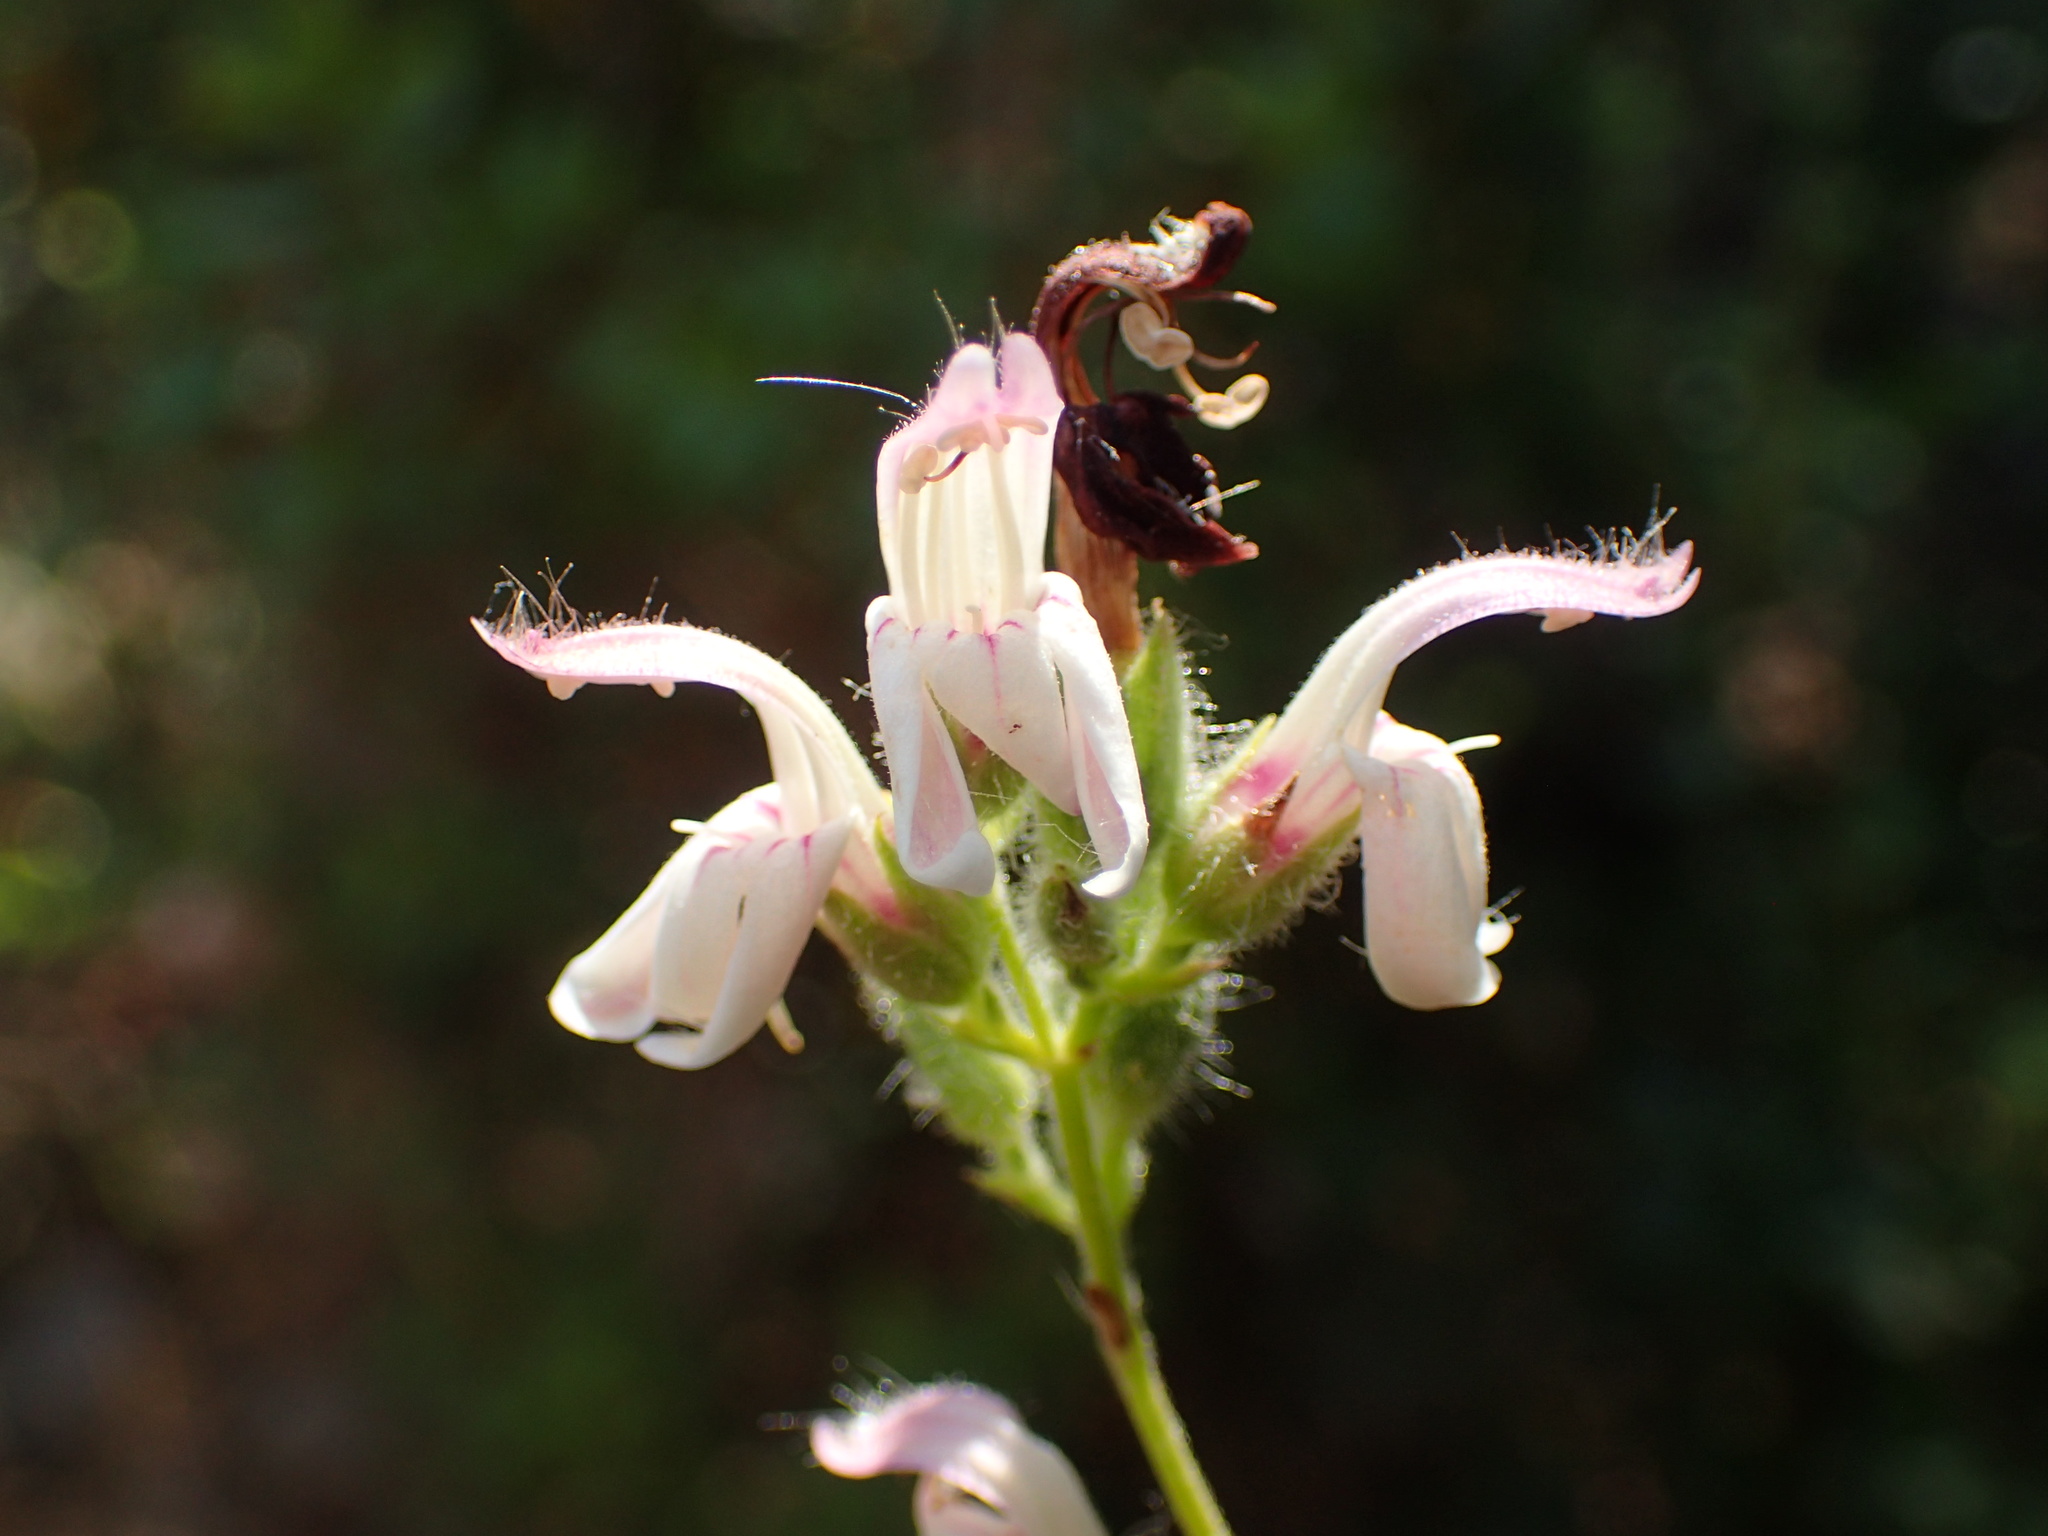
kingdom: Plantae
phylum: Tracheophyta
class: Magnoliopsida
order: Lamiales
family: Plantaginaceae
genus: Keckiella
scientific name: Keckiella breviflora
